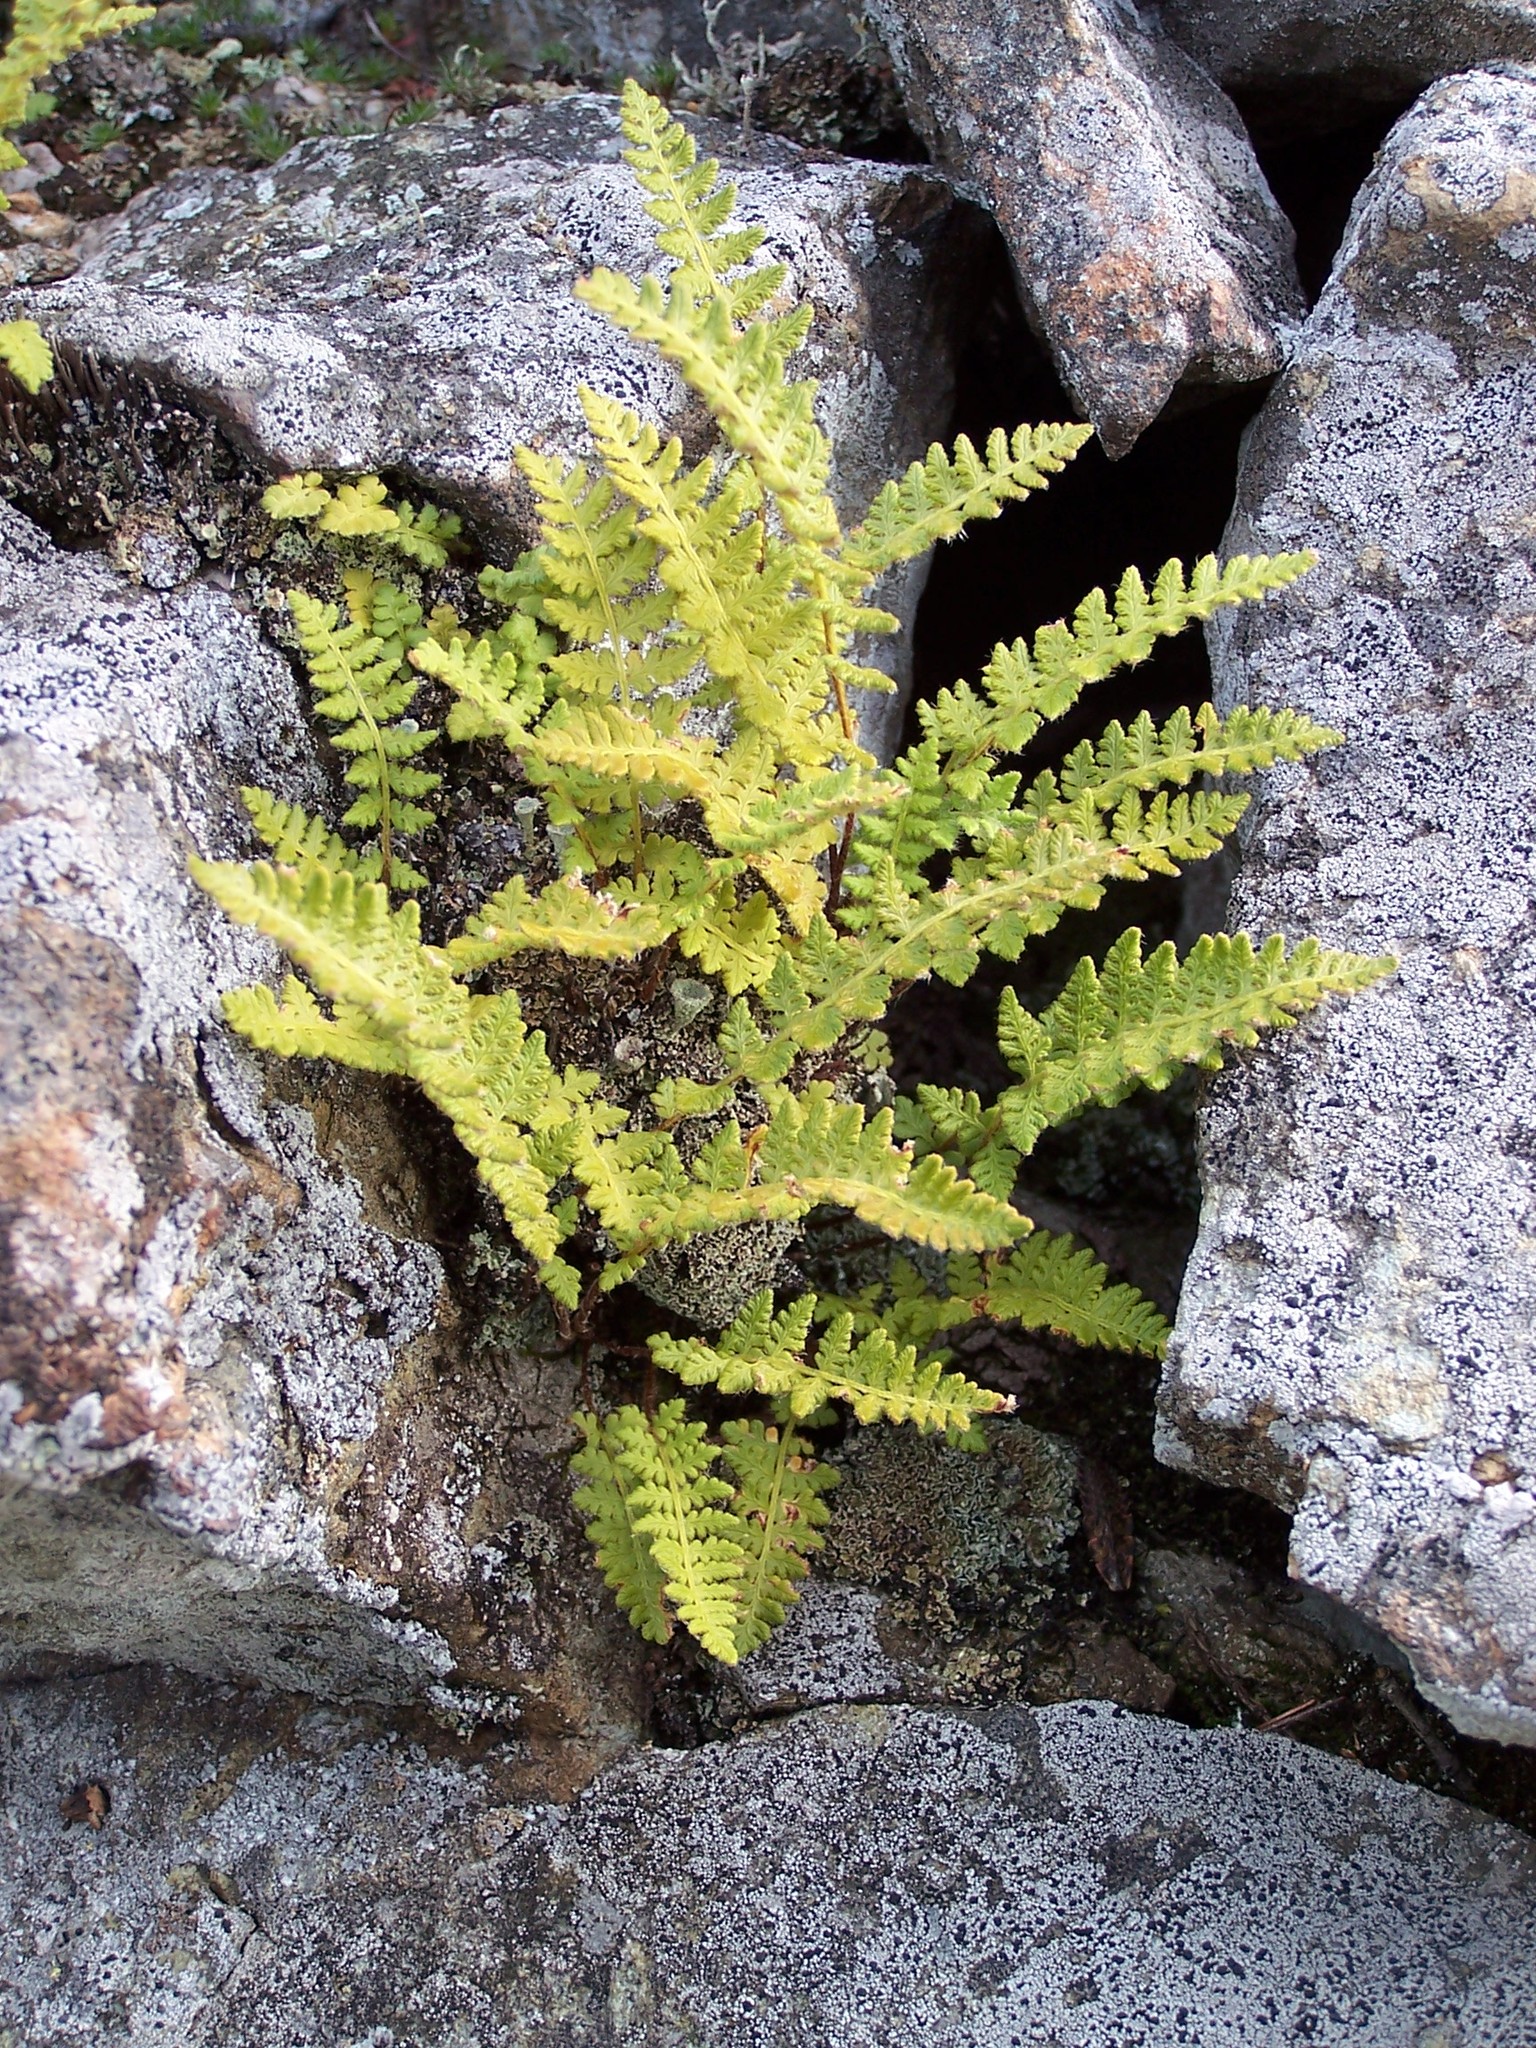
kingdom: Plantae
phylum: Tracheophyta
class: Polypodiopsida
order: Polypodiales
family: Woodsiaceae
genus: Woodsia
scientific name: Woodsia ilvensis
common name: Fragrant woodsia
